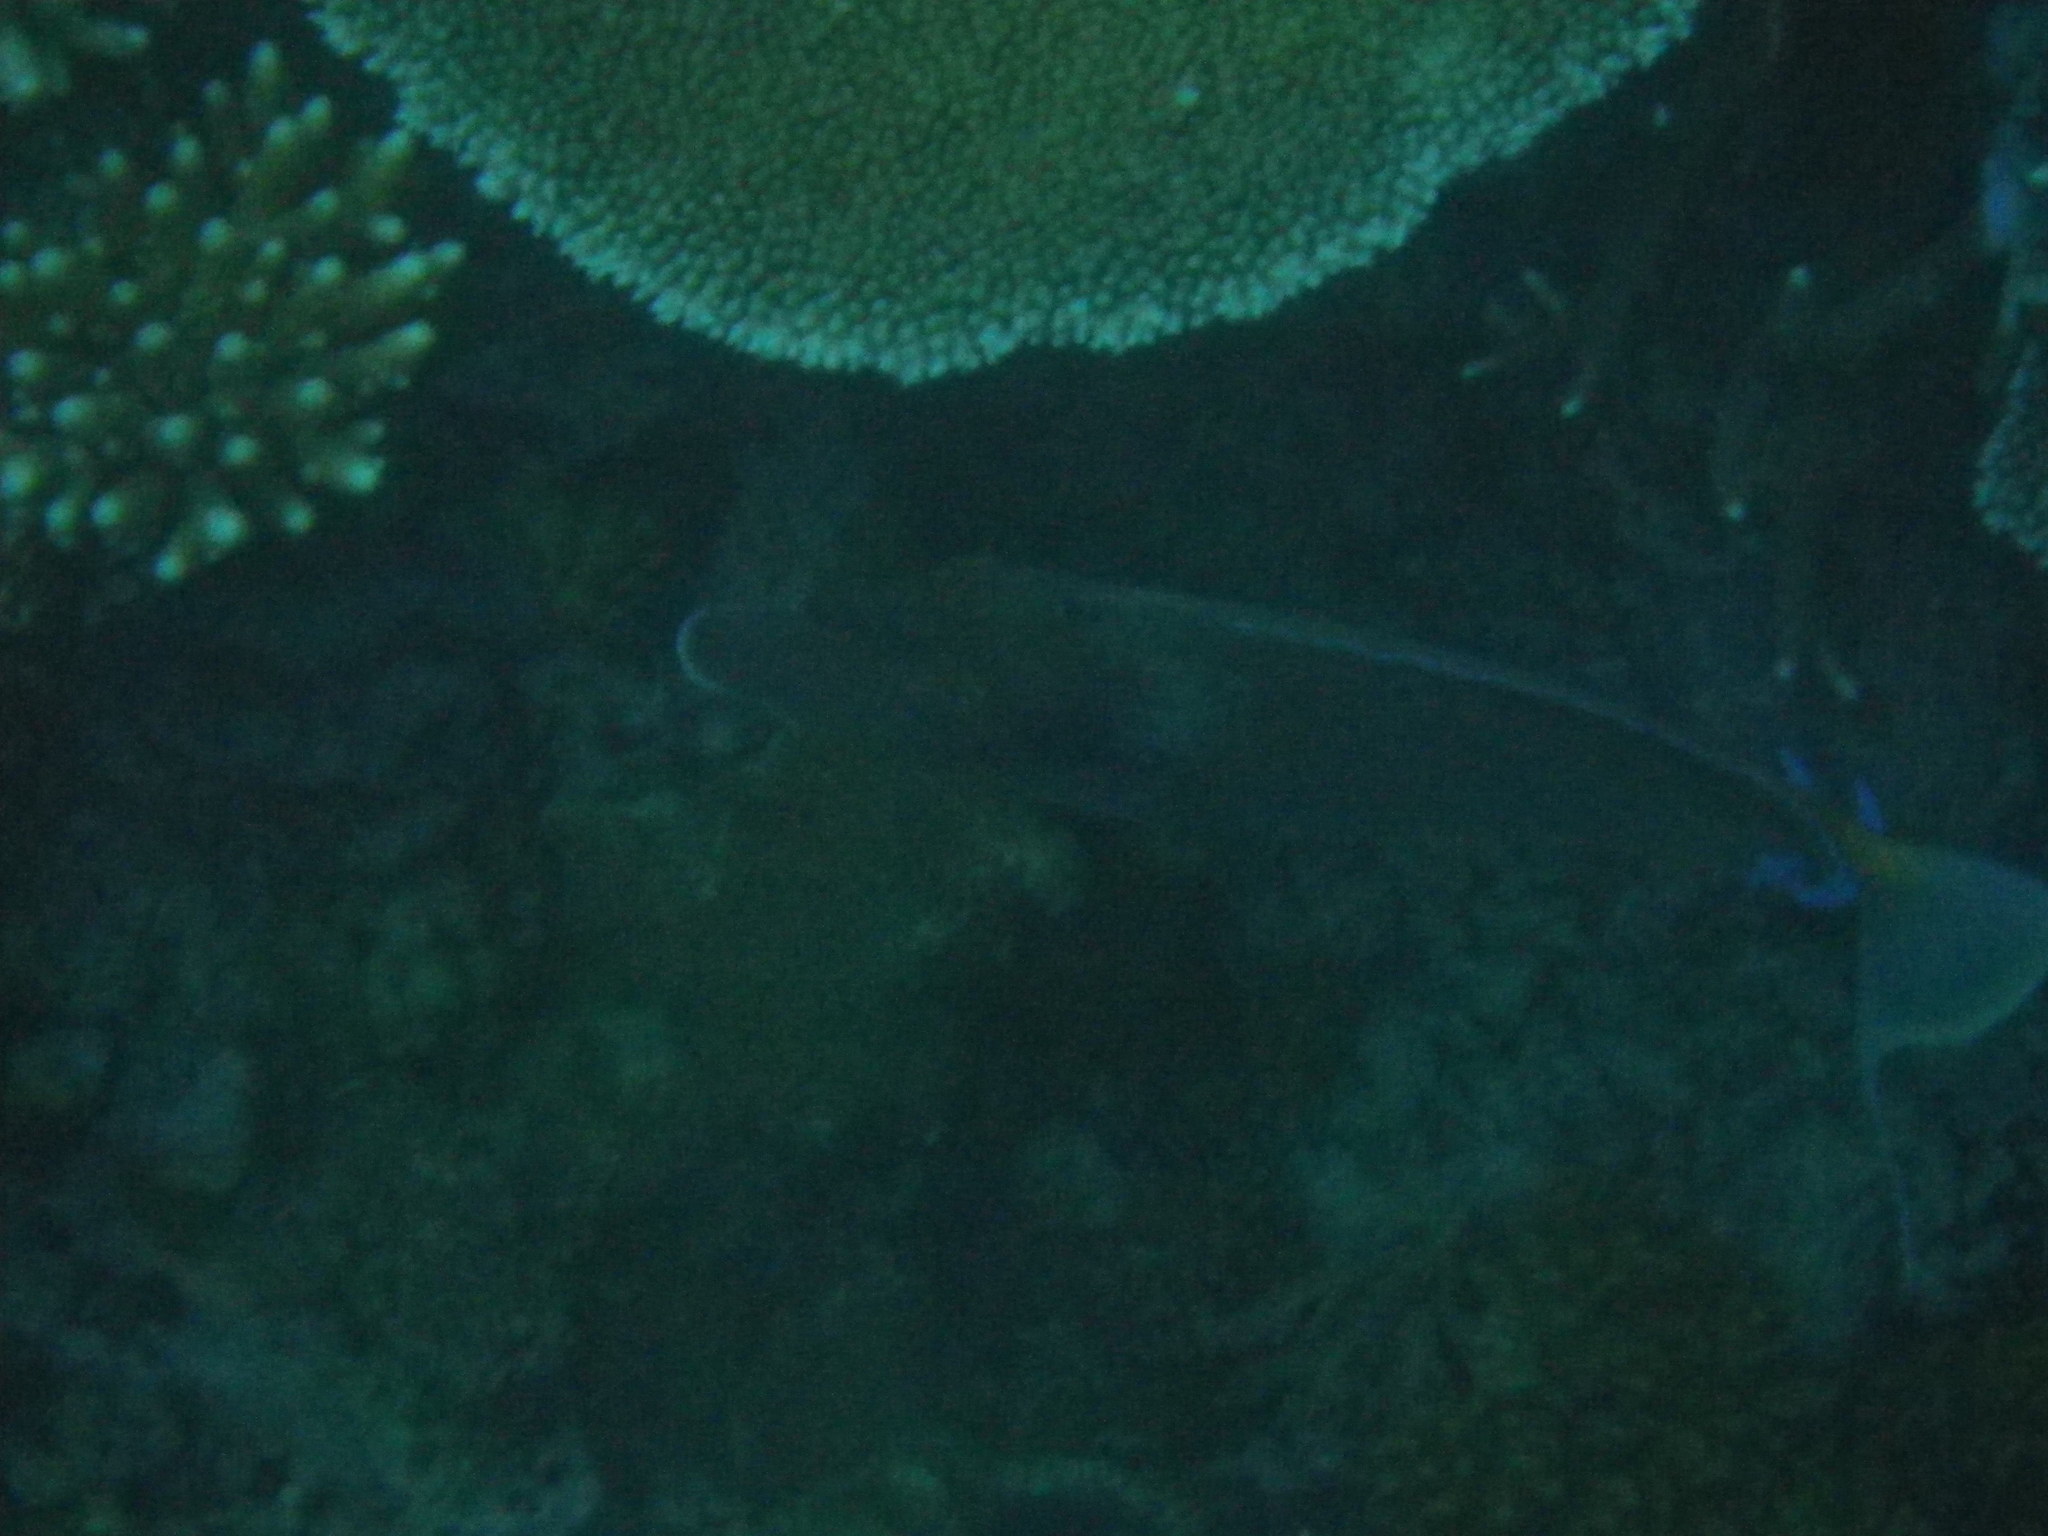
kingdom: Animalia
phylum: Chordata
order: Perciformes
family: Acanthuridae
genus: Naso
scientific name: Naso unicornis
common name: Bluespine unicornfish
